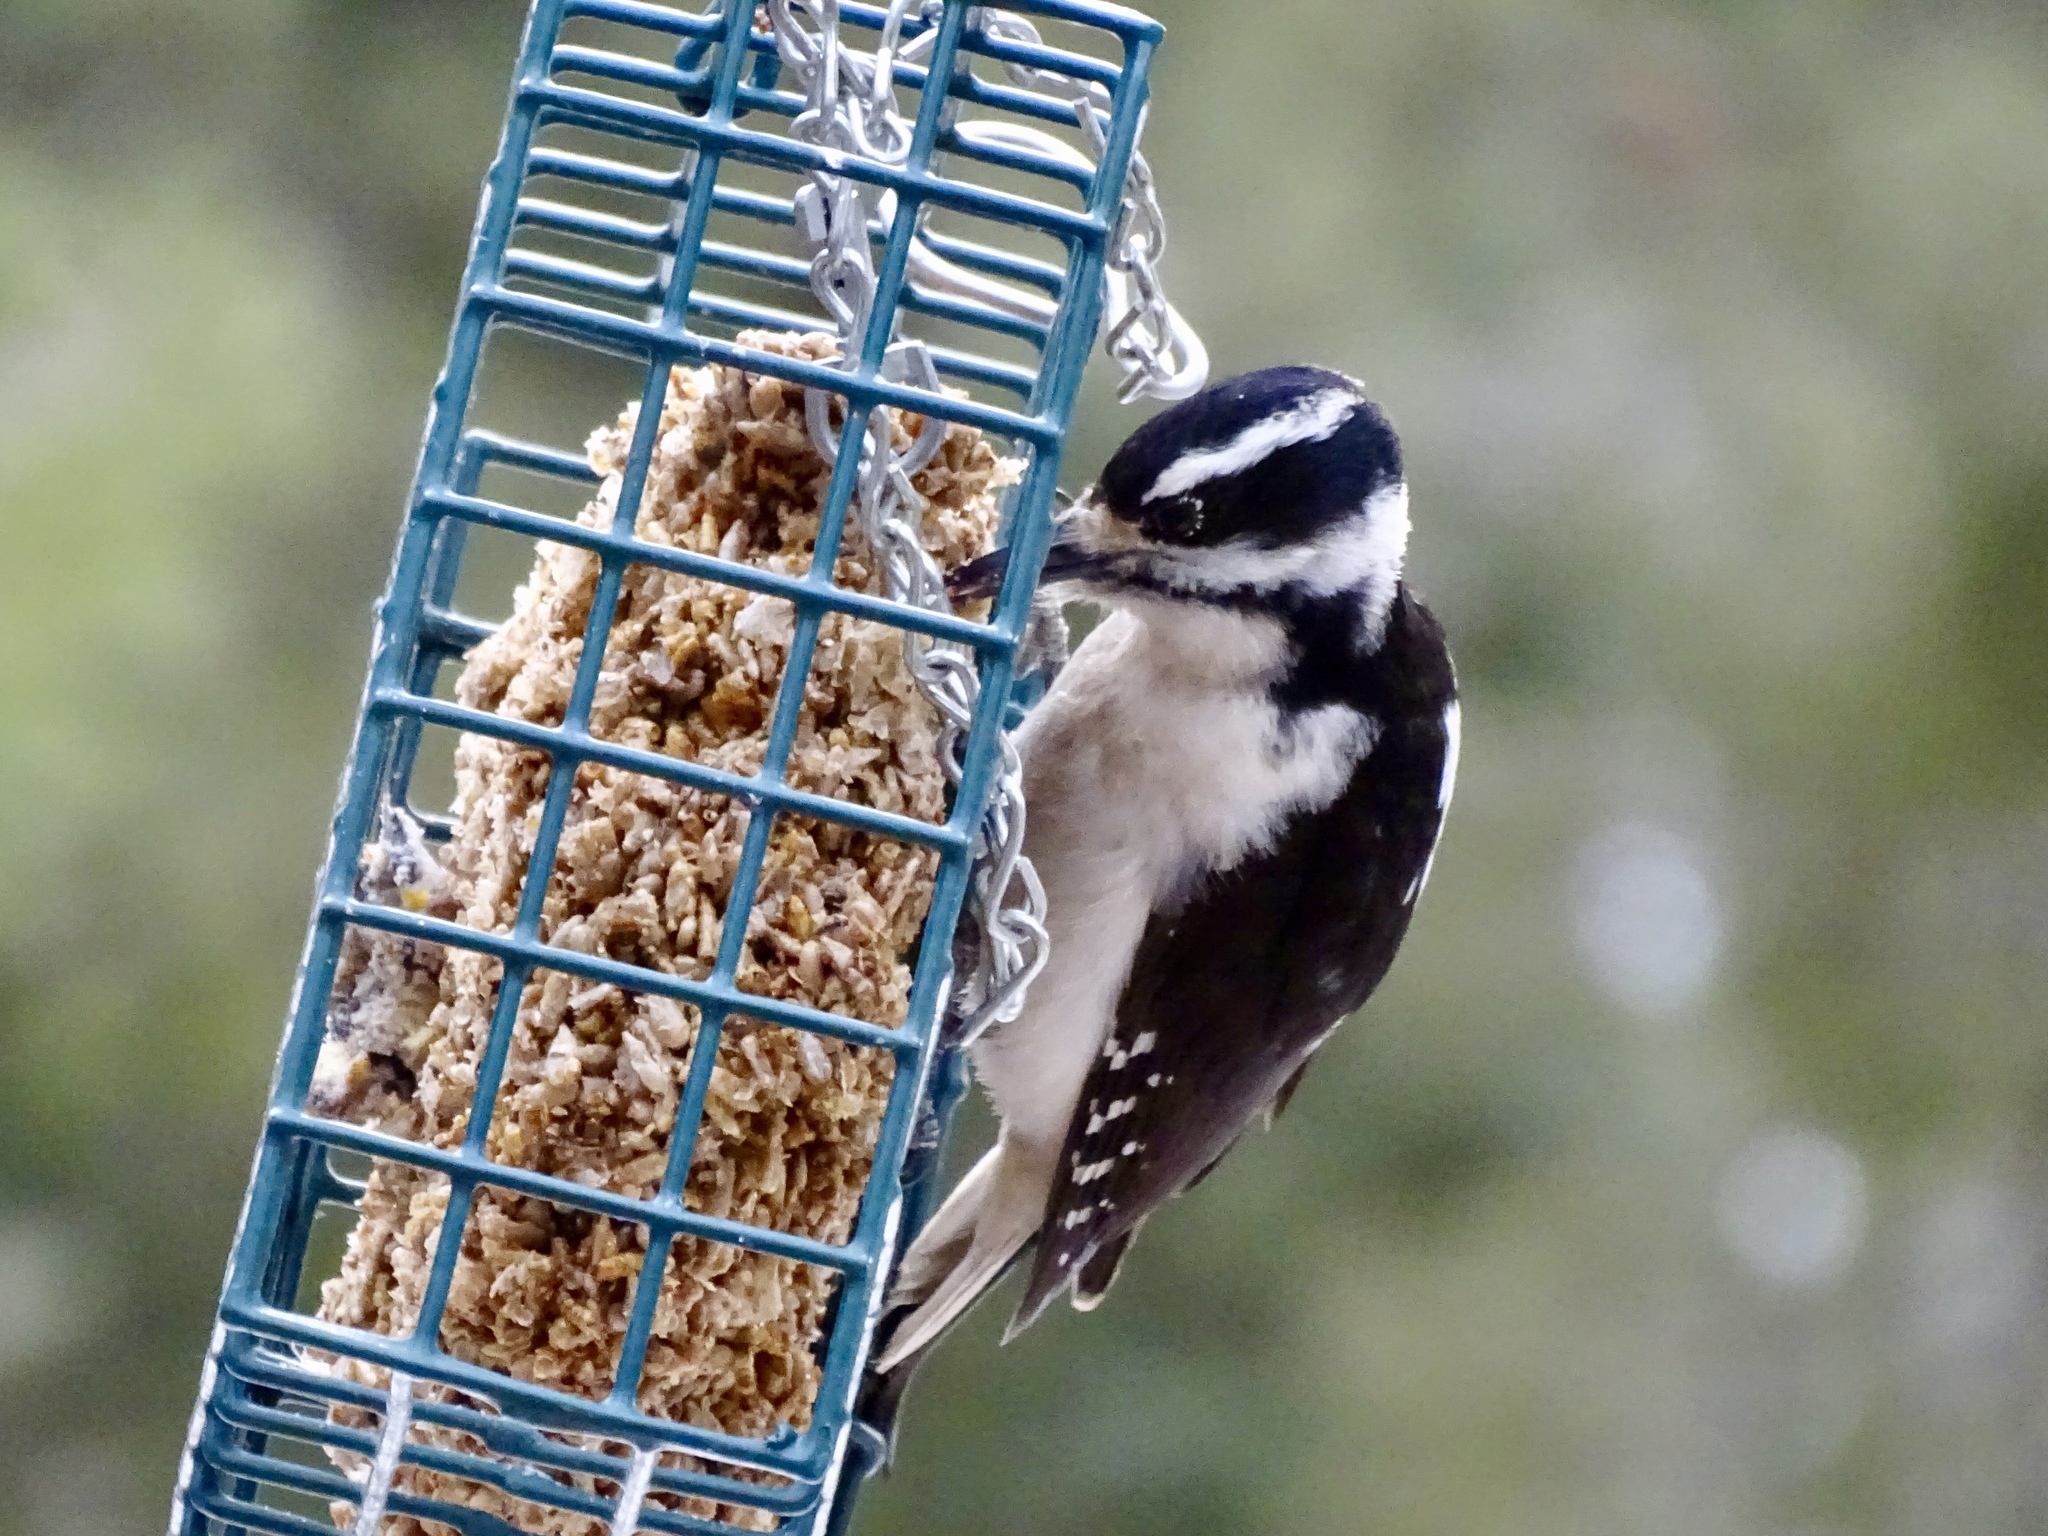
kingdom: Animalia
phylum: Chordata
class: Aves
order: Piciformes
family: Picidae
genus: Leuconotopicus
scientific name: Leuconotopicus villosus
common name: Hairy woodpecker
